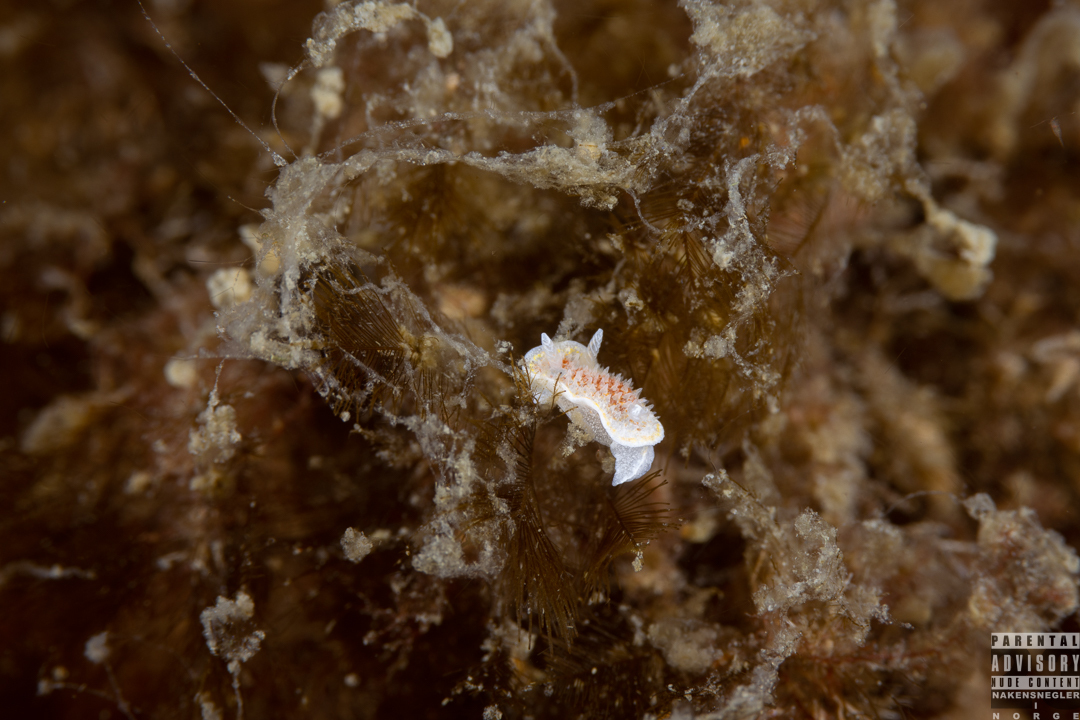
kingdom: Animalia
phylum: Mollusca
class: Gastropoda
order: Nudibranchia
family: Calycidorididae
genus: Diaphorodoris
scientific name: Diaphorodoris luteocincta
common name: Fried egg nudibranch
